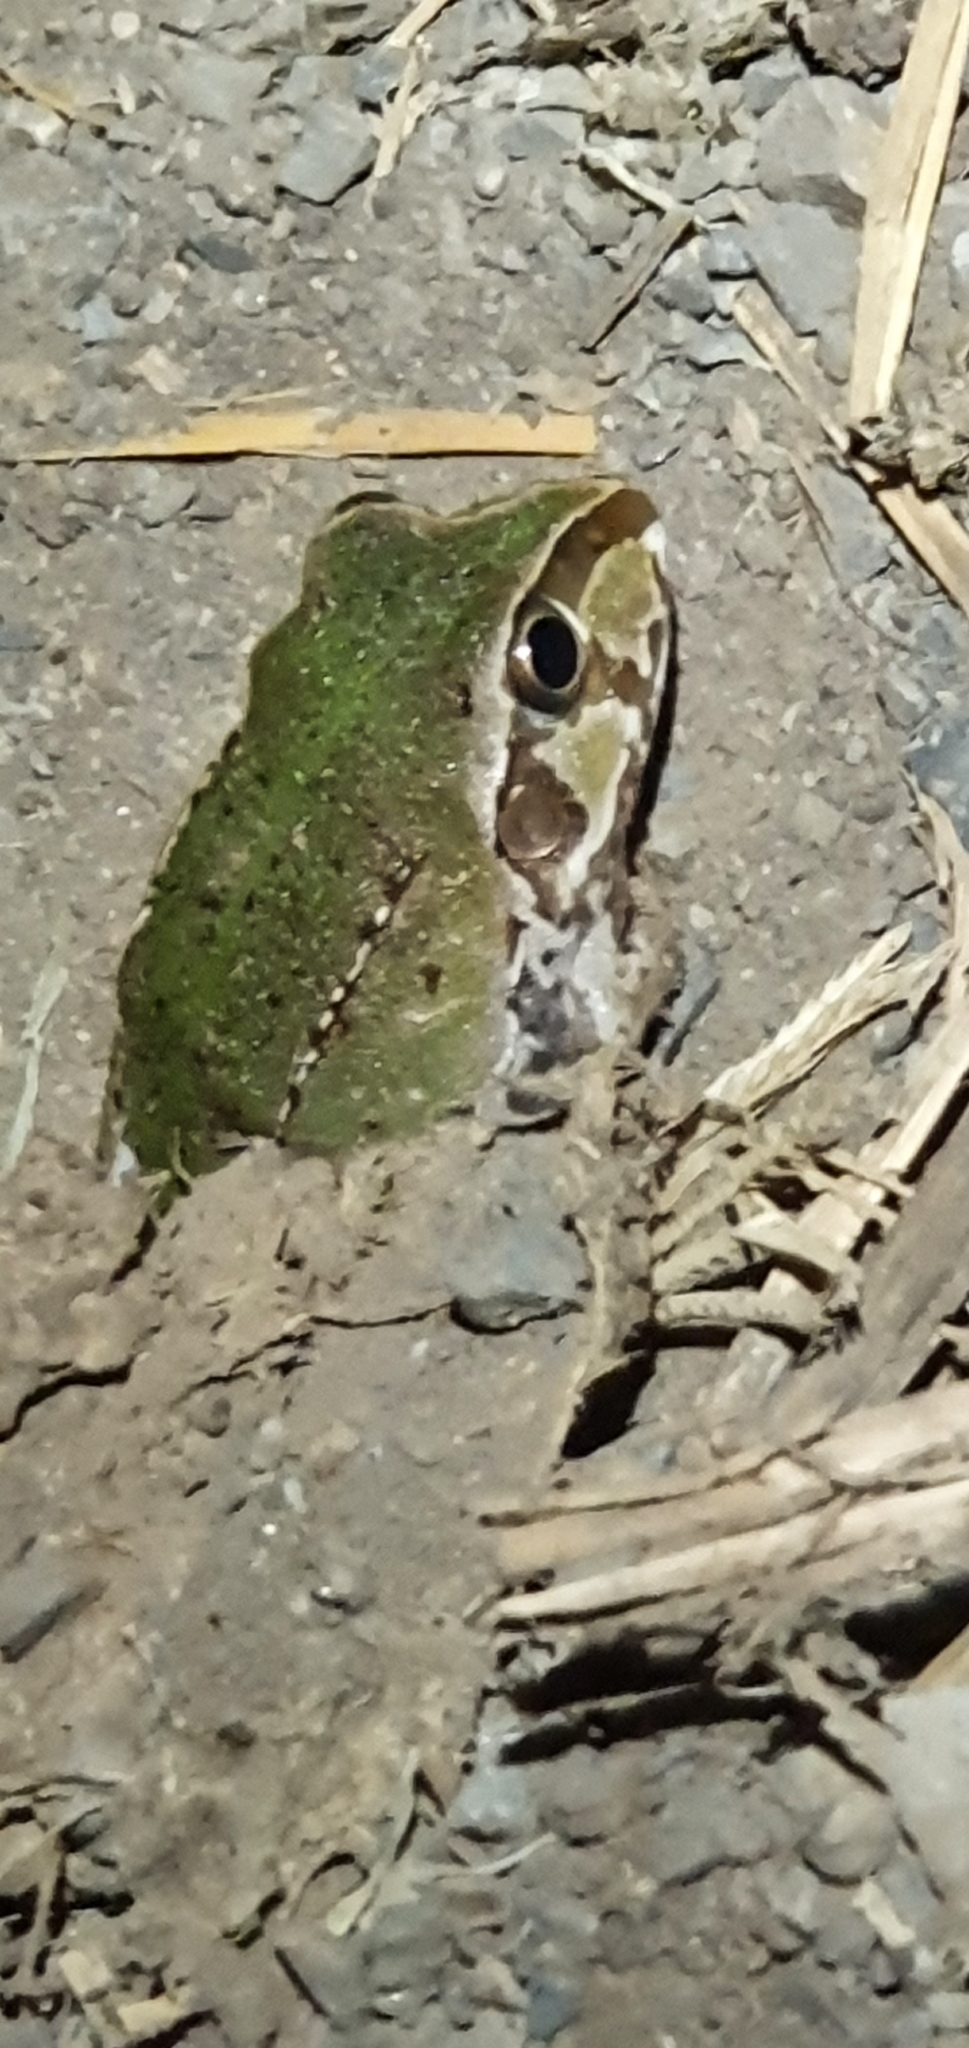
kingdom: Animalia
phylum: Chordata
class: Amphibia
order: Anura
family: Pelodryadidae
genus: Ranoidea
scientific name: Ranoidea novaehollandiae
